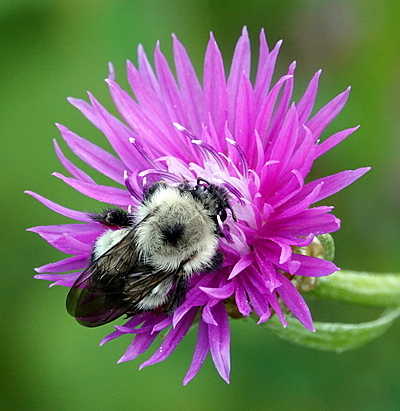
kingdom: Animalia
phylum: Arthropoda
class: Insecta
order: Hymenoptera
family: Apidae
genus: Pyrobombus
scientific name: Pyrobombus
